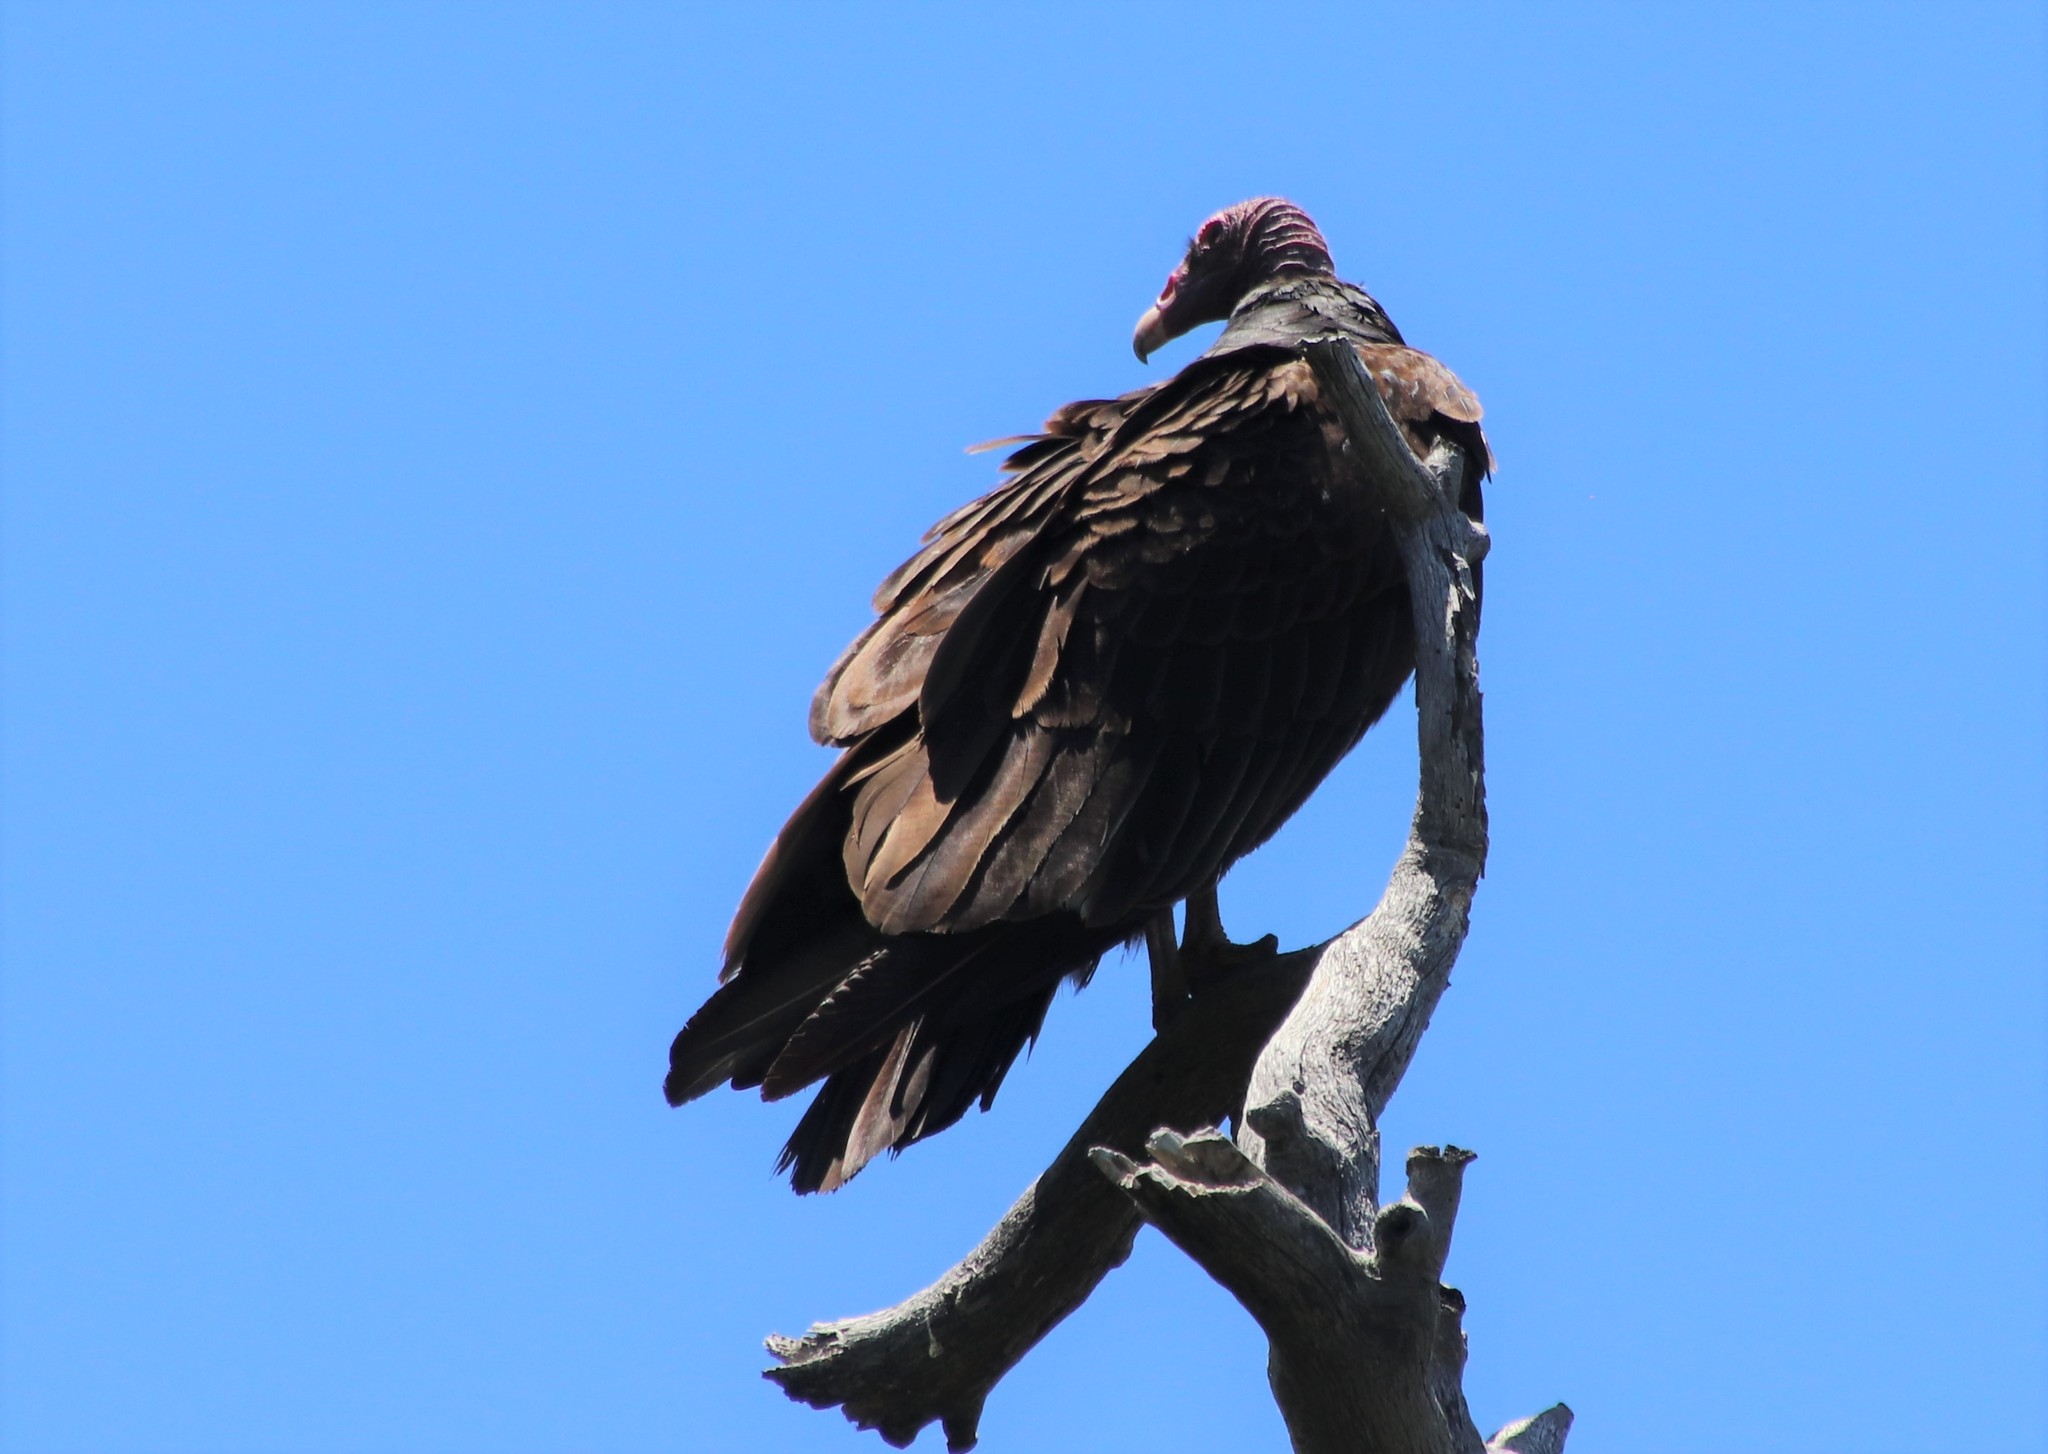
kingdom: Animalia
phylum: Chordata
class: Aves
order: Accipitriformes
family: Cathartidae
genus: Cathartes
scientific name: Cathartes aura
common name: Turkey vulture
